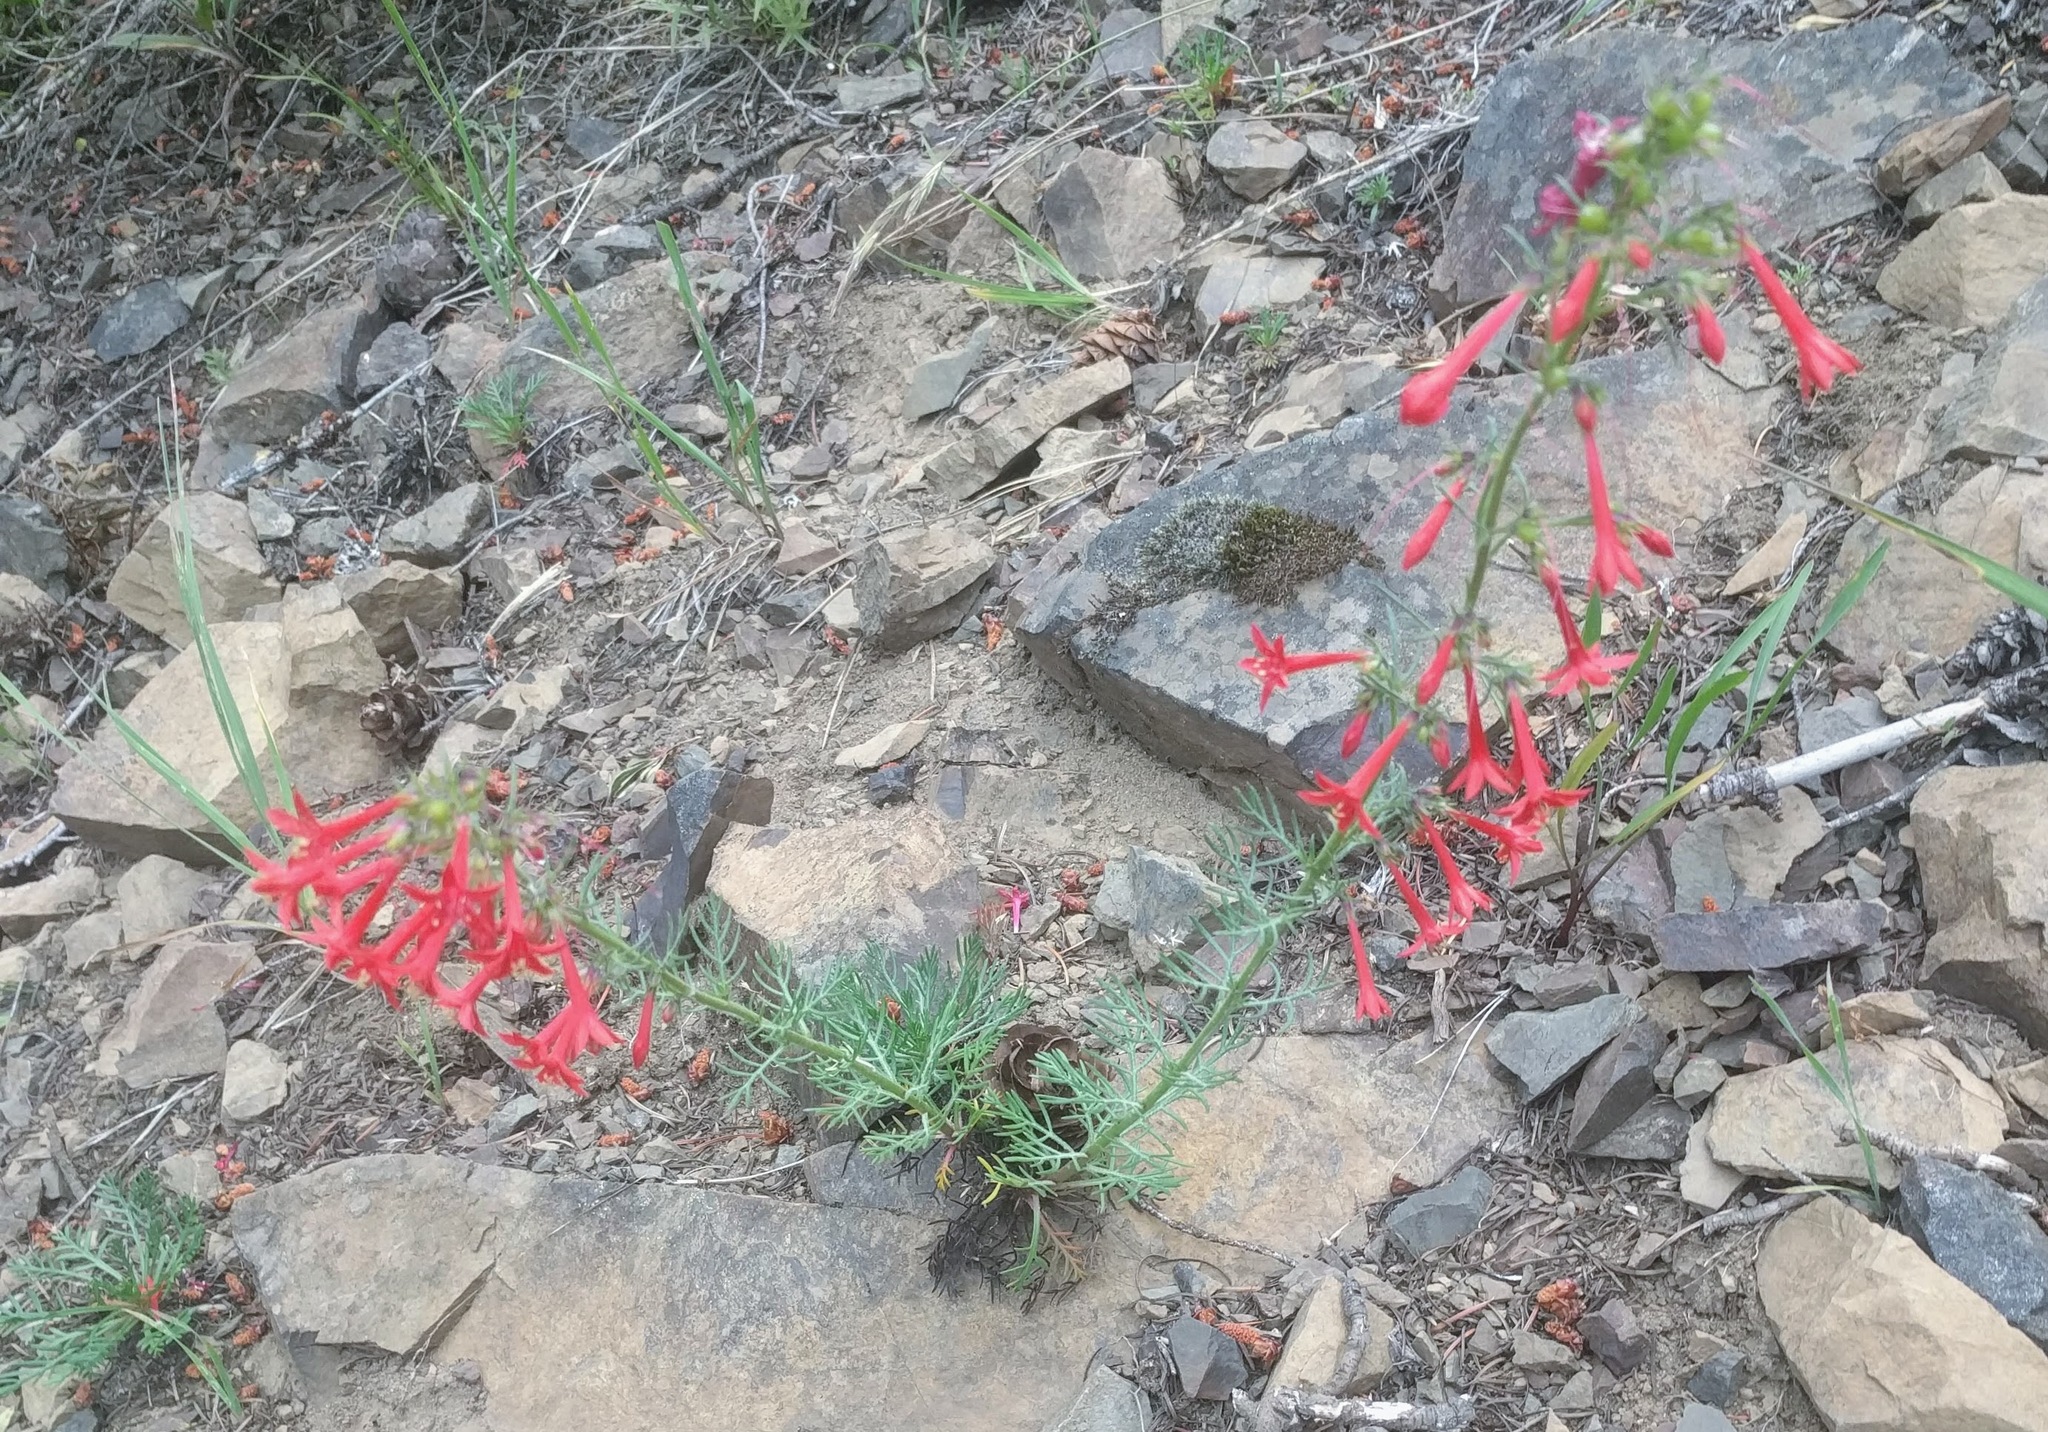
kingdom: Plantae
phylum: Tracheophyta
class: Magnoliopsida
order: Ericales
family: Polemoniaceae
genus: Ipomopsis
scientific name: Ipomopsis aggregata
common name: Scarlet gilia
